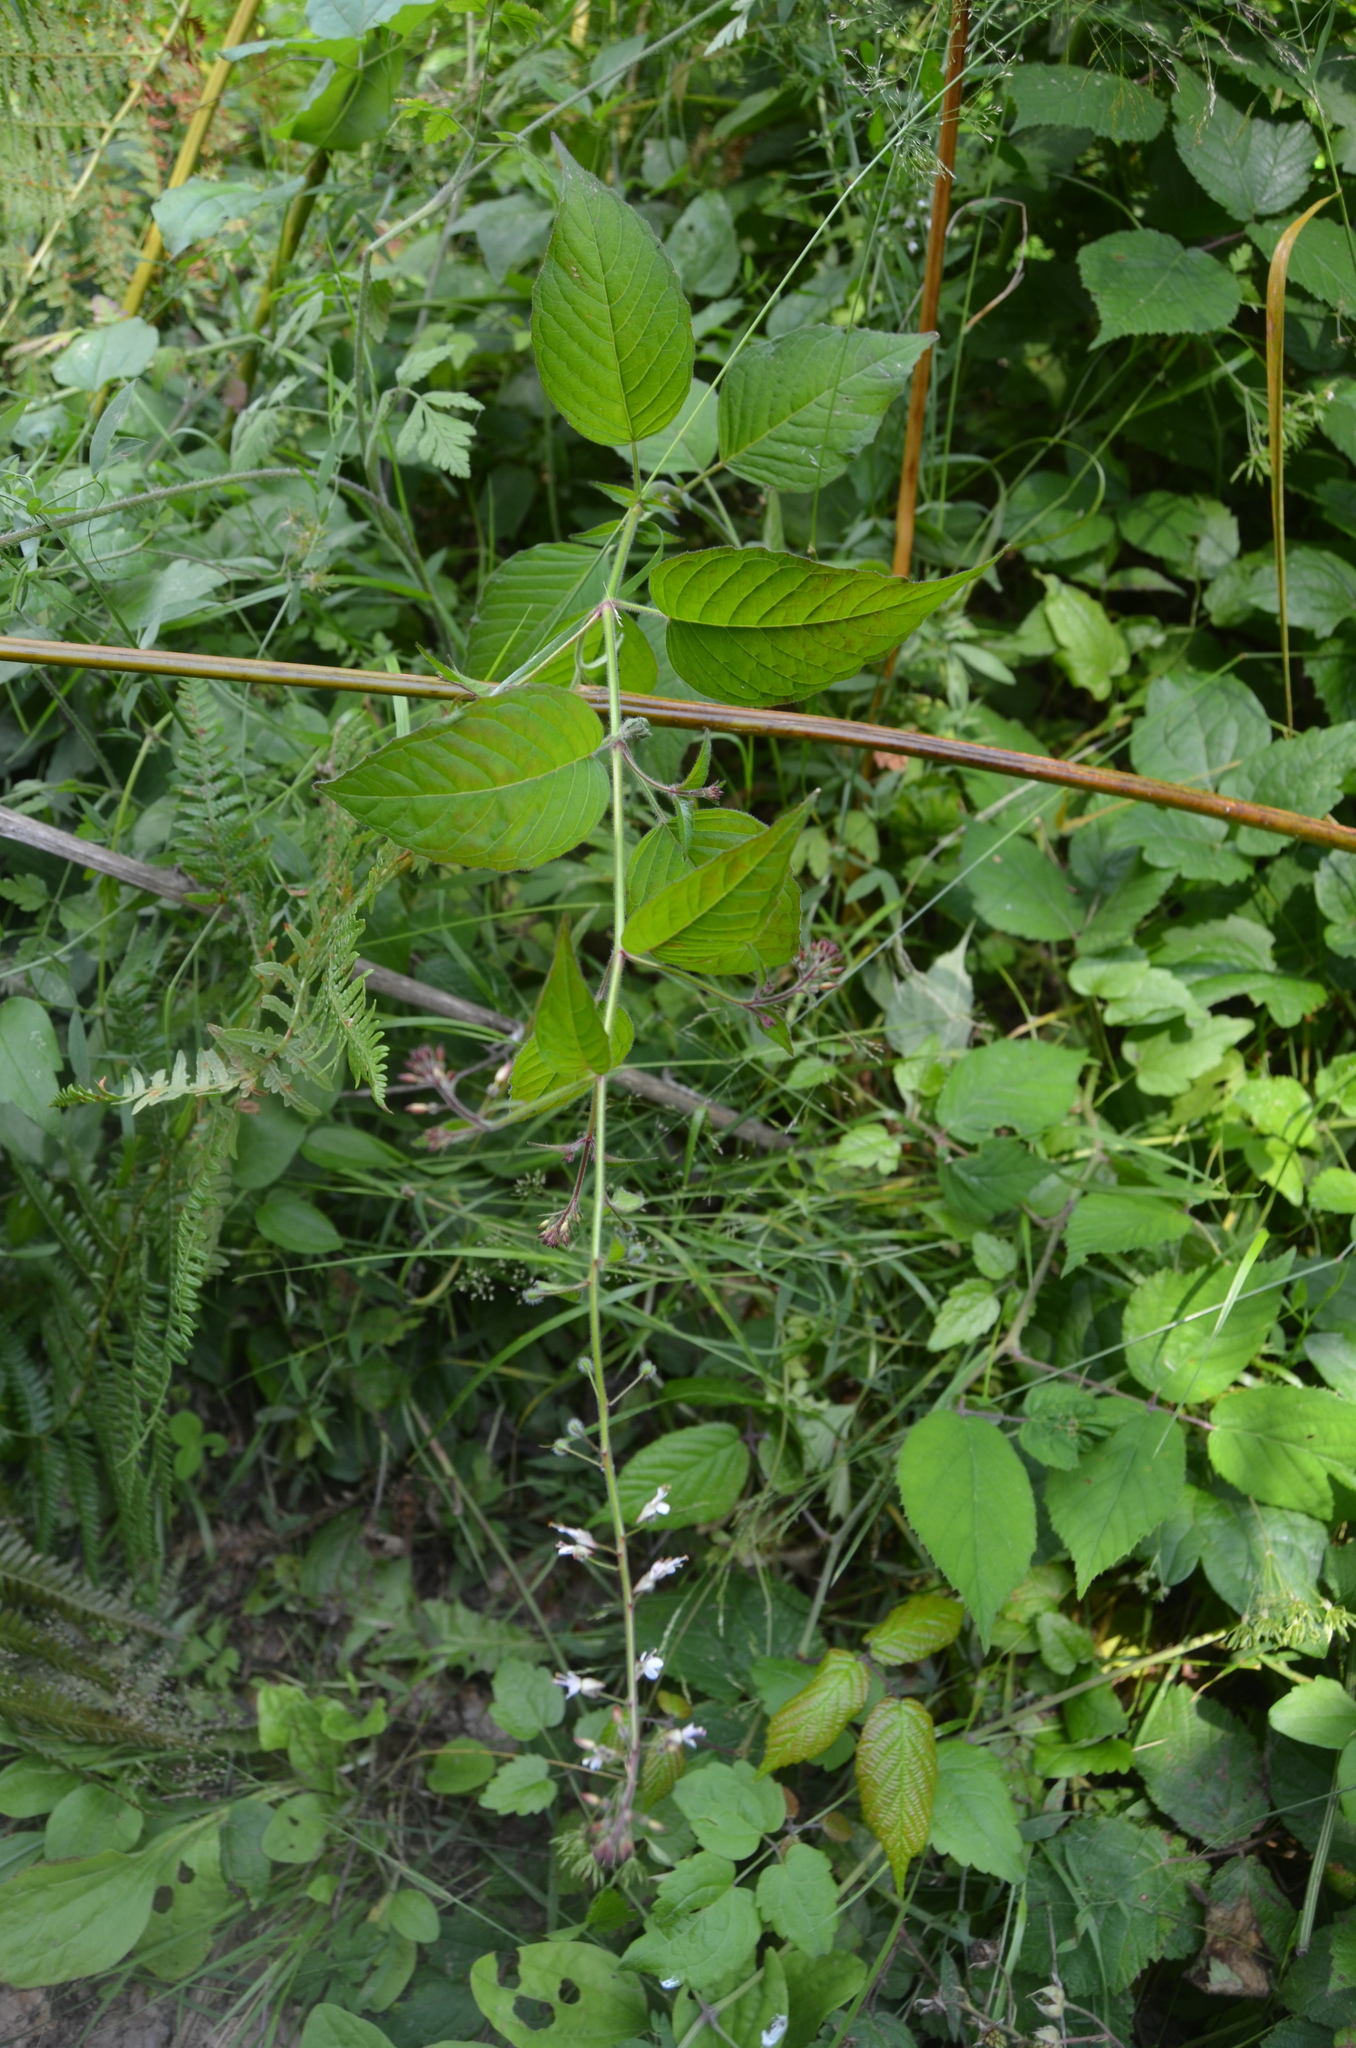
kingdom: Plantae
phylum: Tracheophyta
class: Magnoliopsida
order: Myrtales
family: Onagraceae
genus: Circaea
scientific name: Circaea lutetiana
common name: Enchanter's-nightshade
